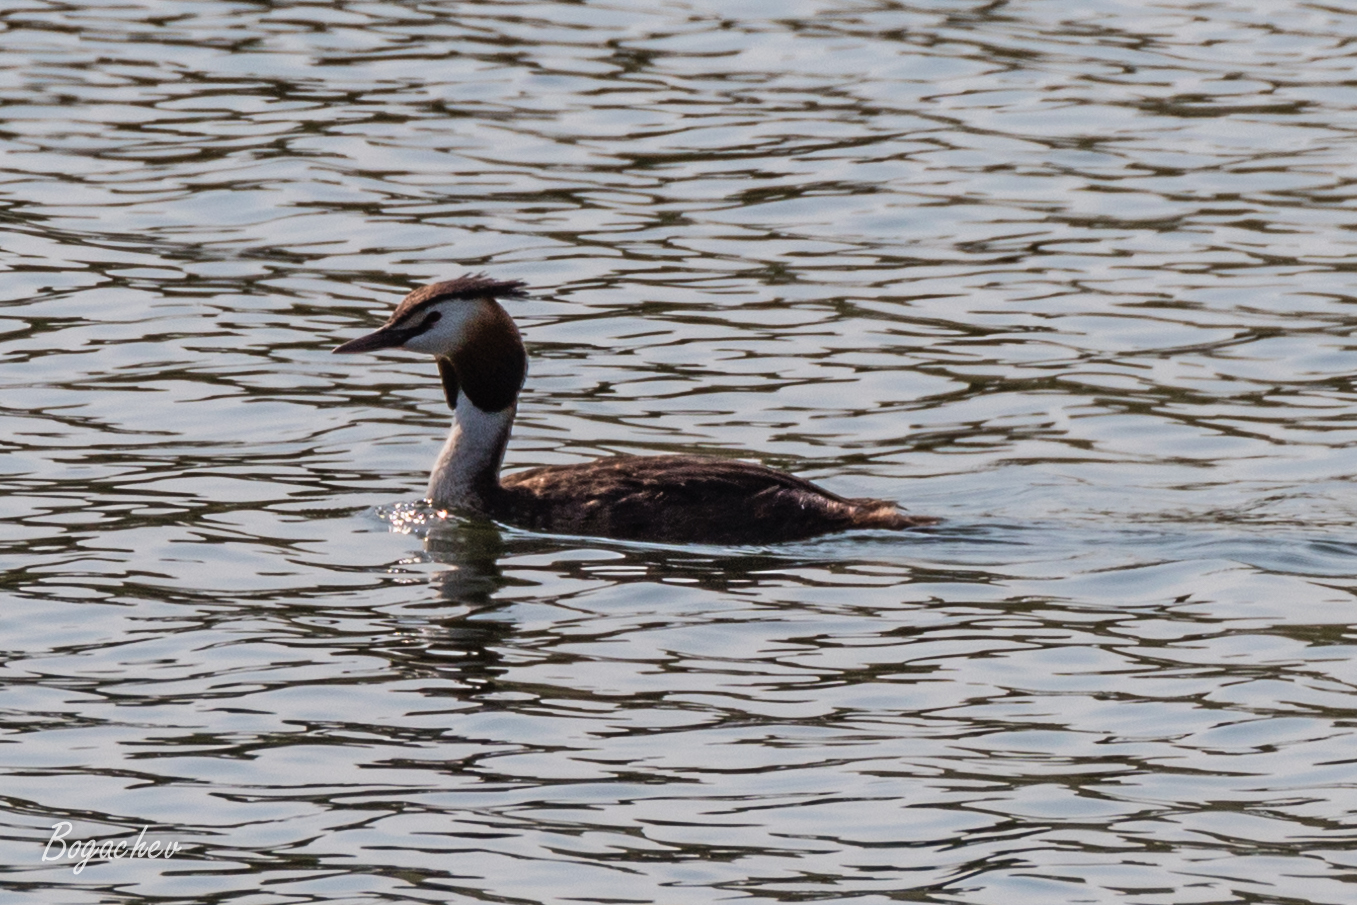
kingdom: Animalia
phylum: Chordata
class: Aves
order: Podicipediformes
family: Podicipedidae
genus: Podiceps
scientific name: Podiceps cristatus
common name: Great crested grebe
